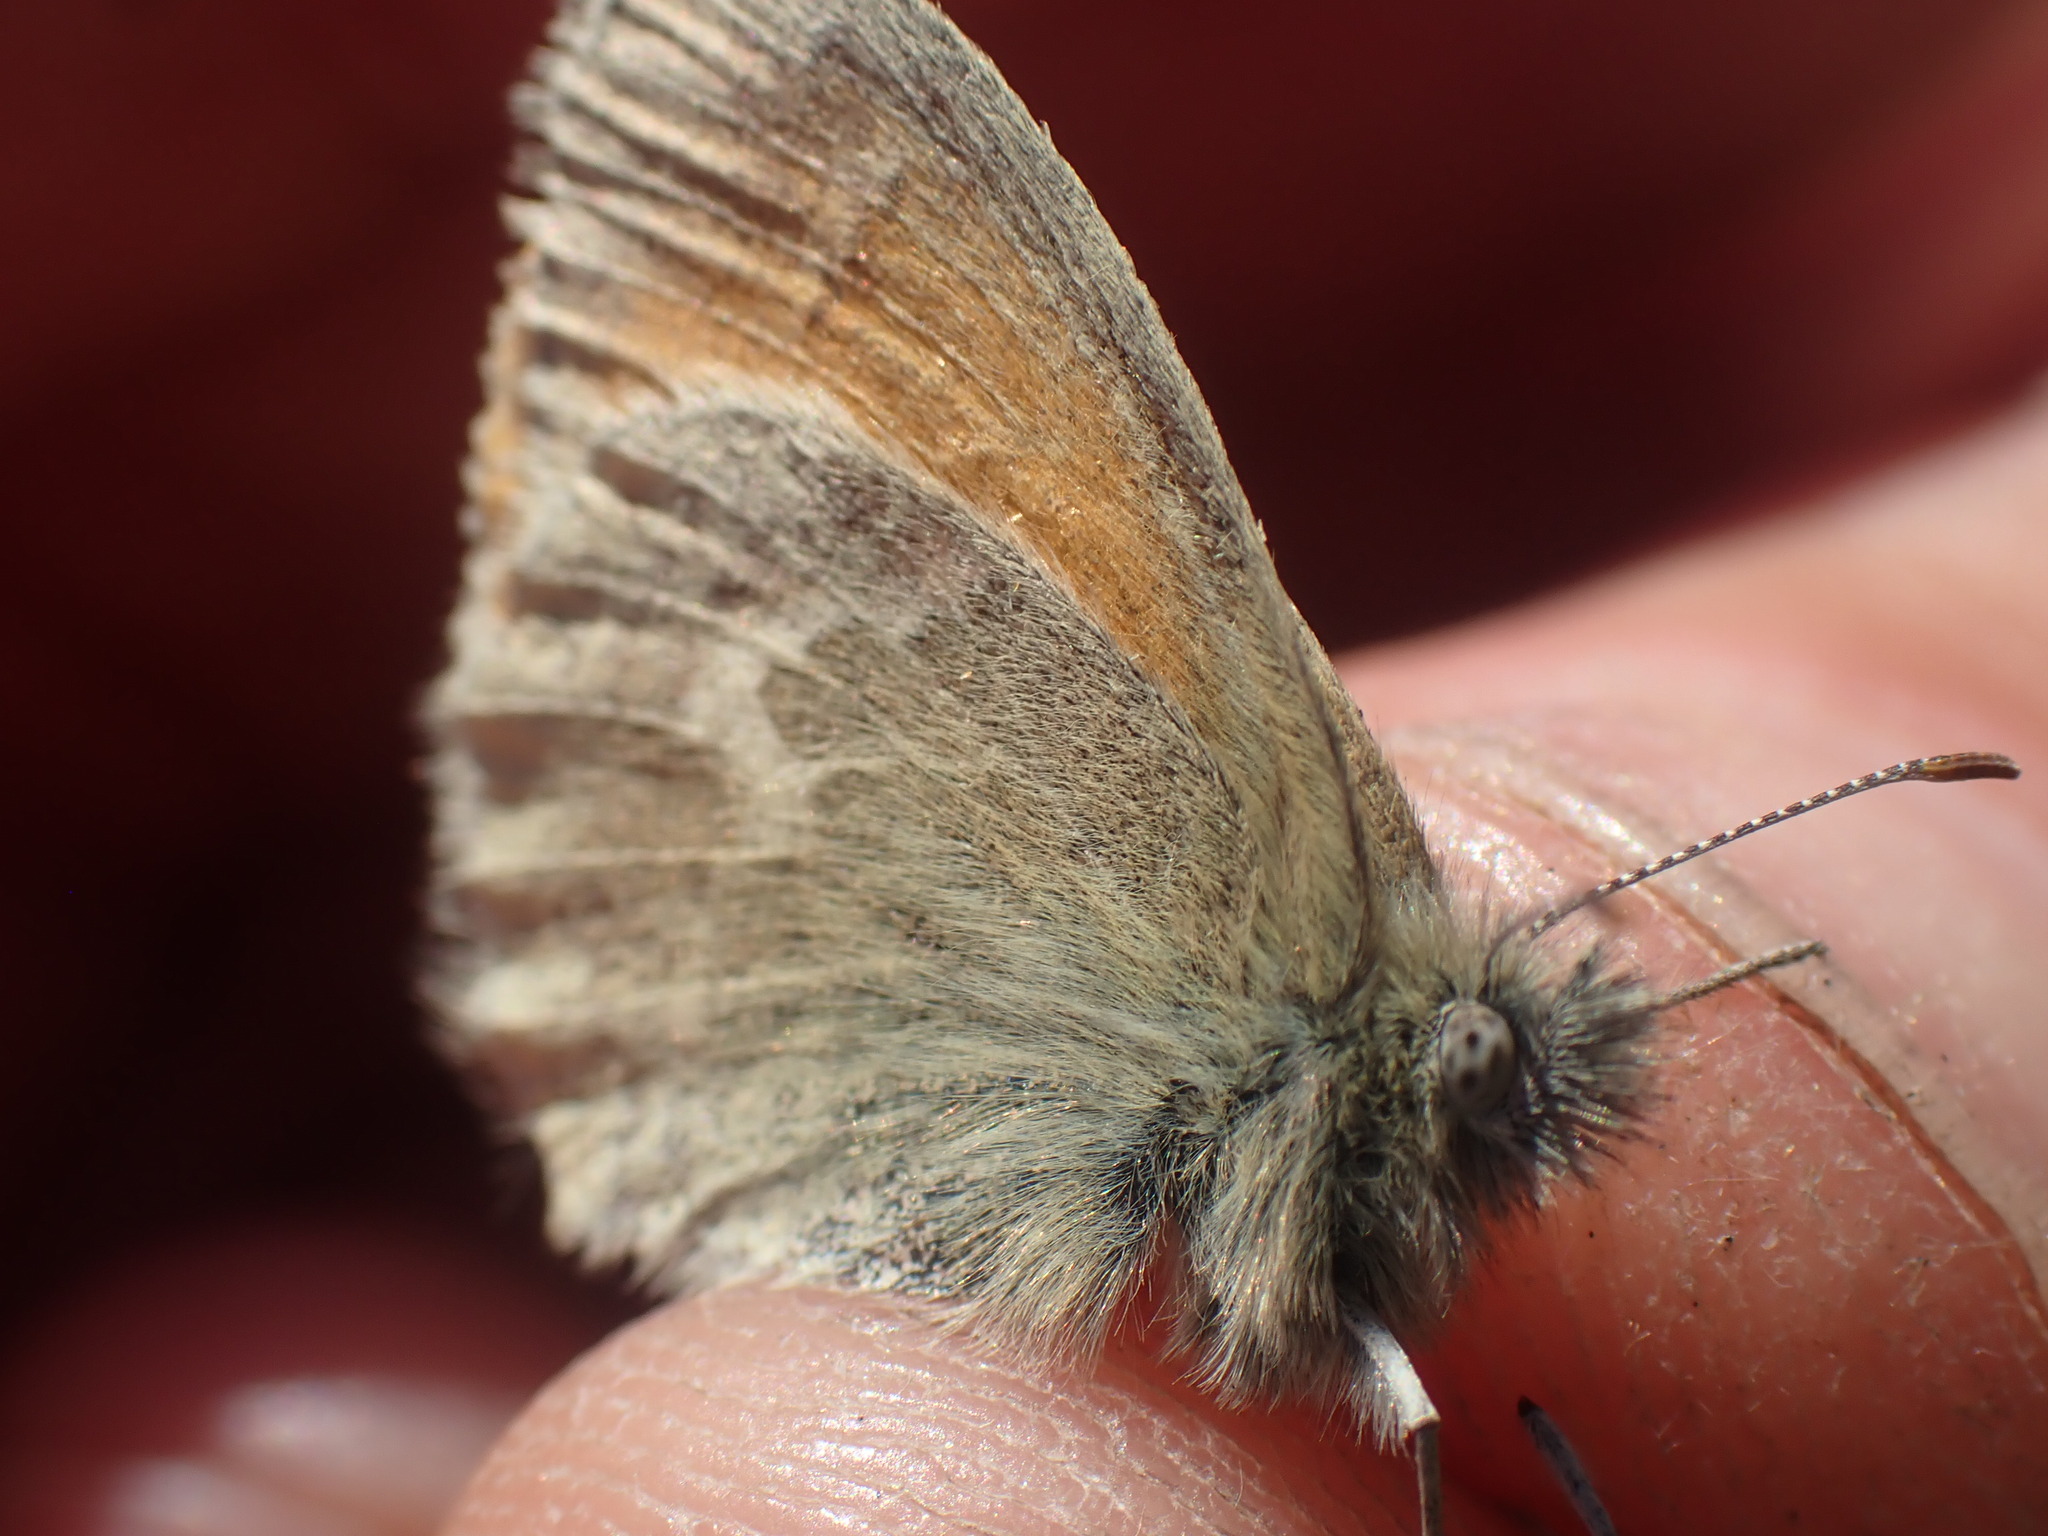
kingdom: Animalia
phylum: Arthropoda
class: Insecta
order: Lepidoptera
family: Nymphalidae
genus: Coenonympha
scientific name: Coenonympha california
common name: Common ringlet
